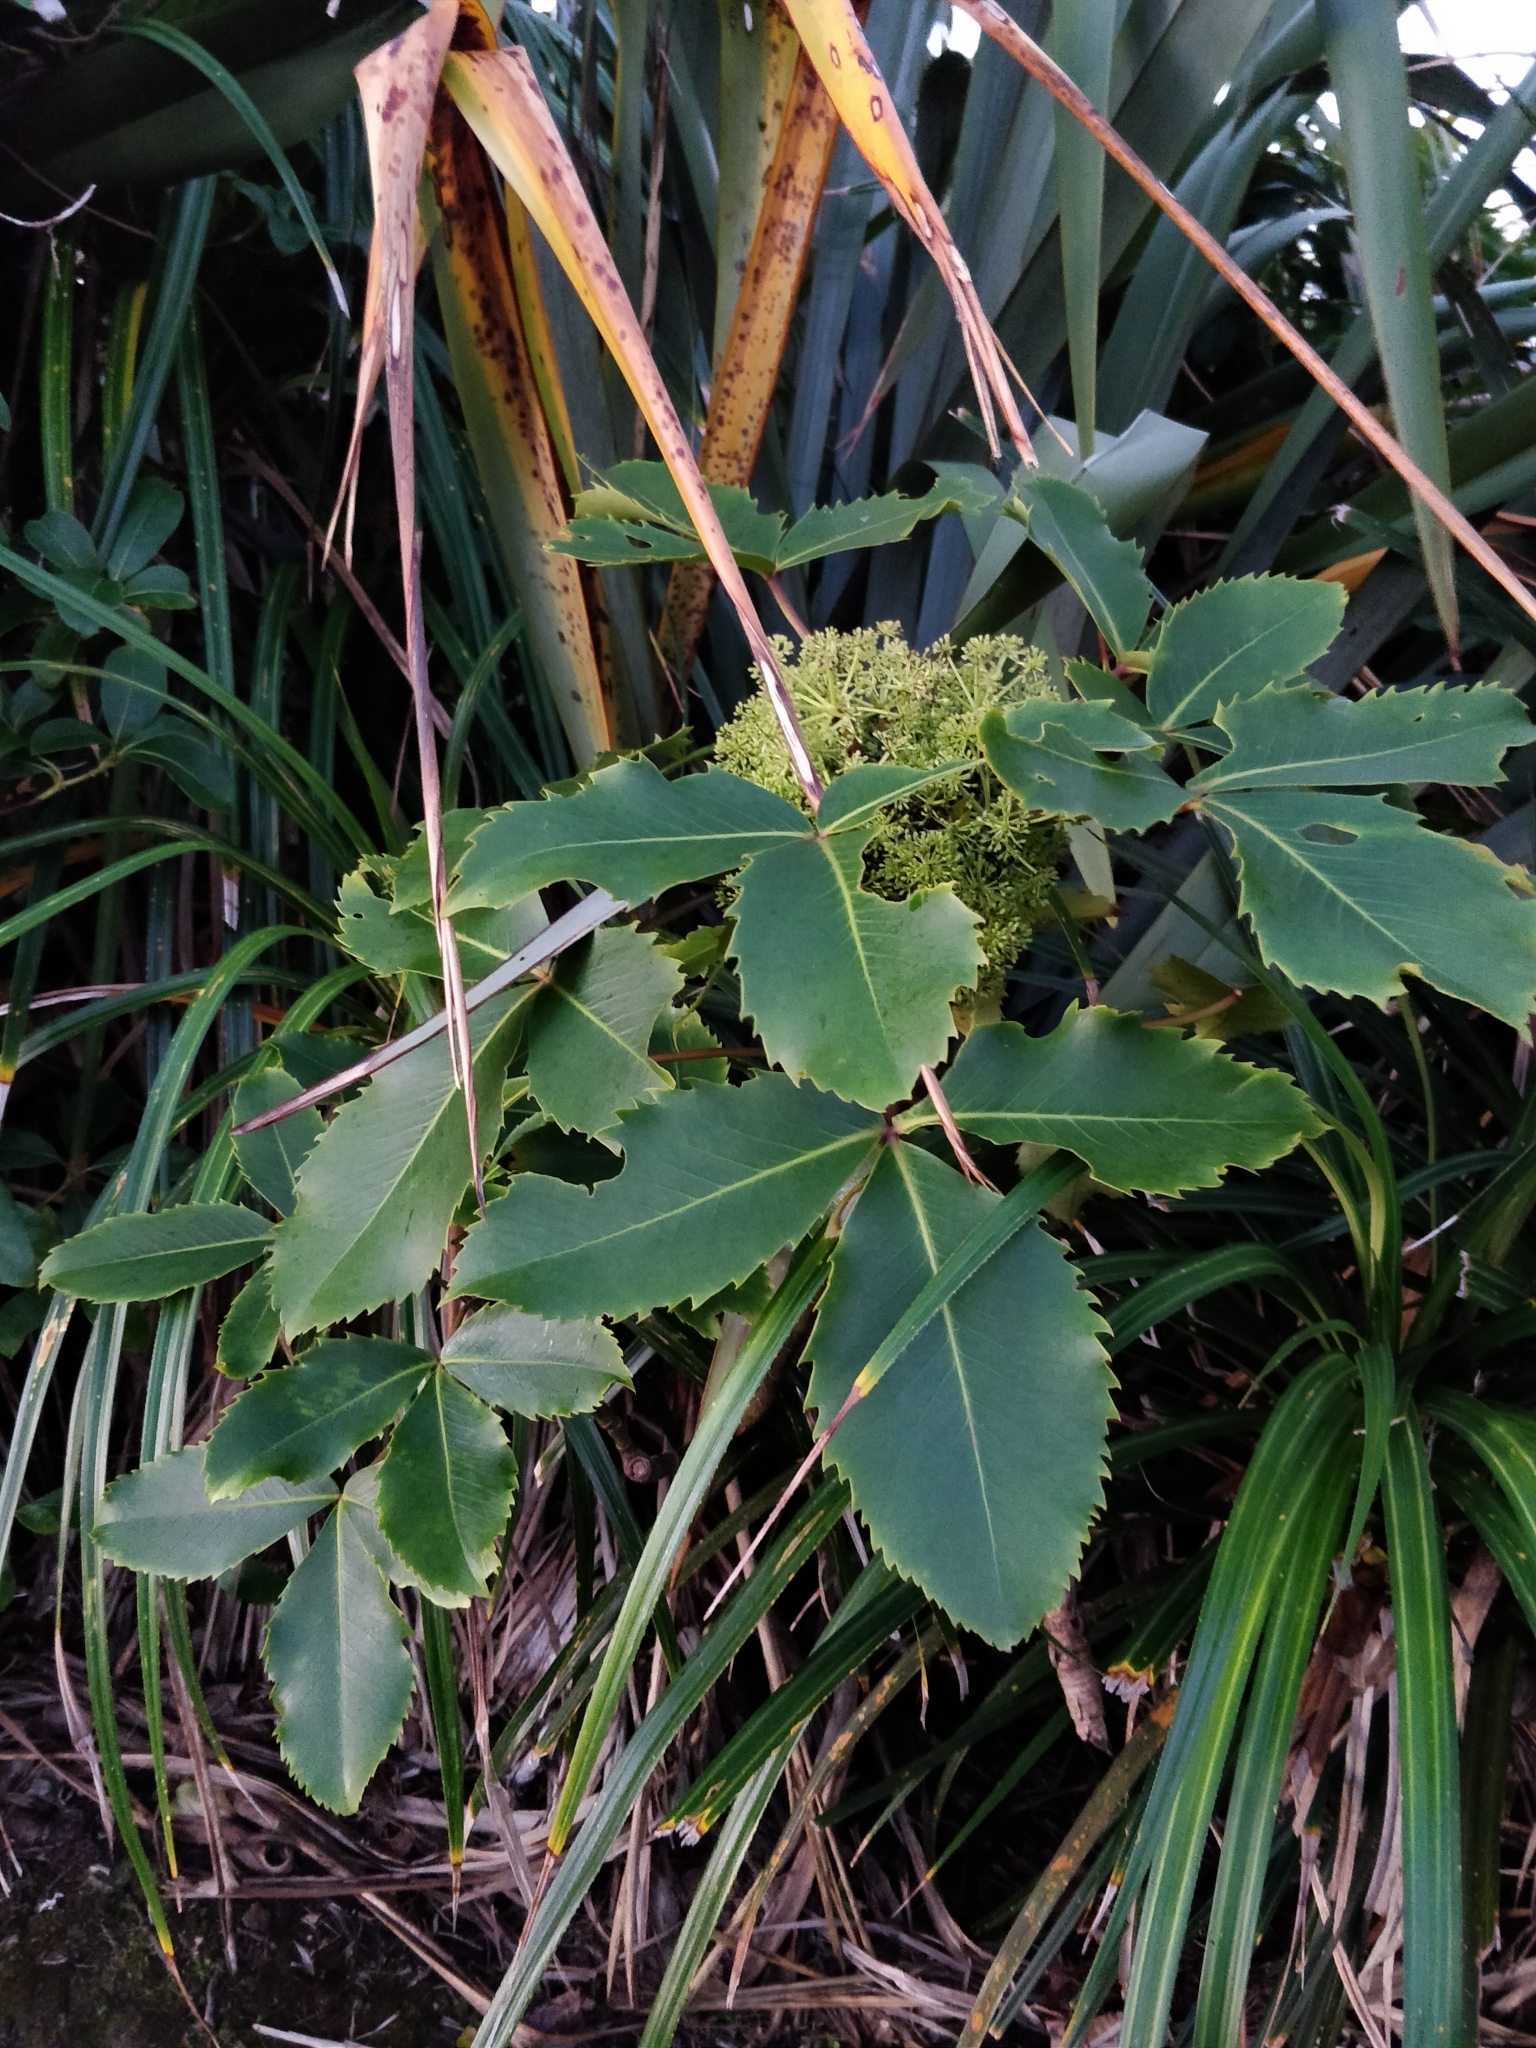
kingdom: Plantae
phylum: Tracheophyta
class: Magnoliopsida
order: Apiales
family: Araliaceae
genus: Neopanax
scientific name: Neopanax colensoi
